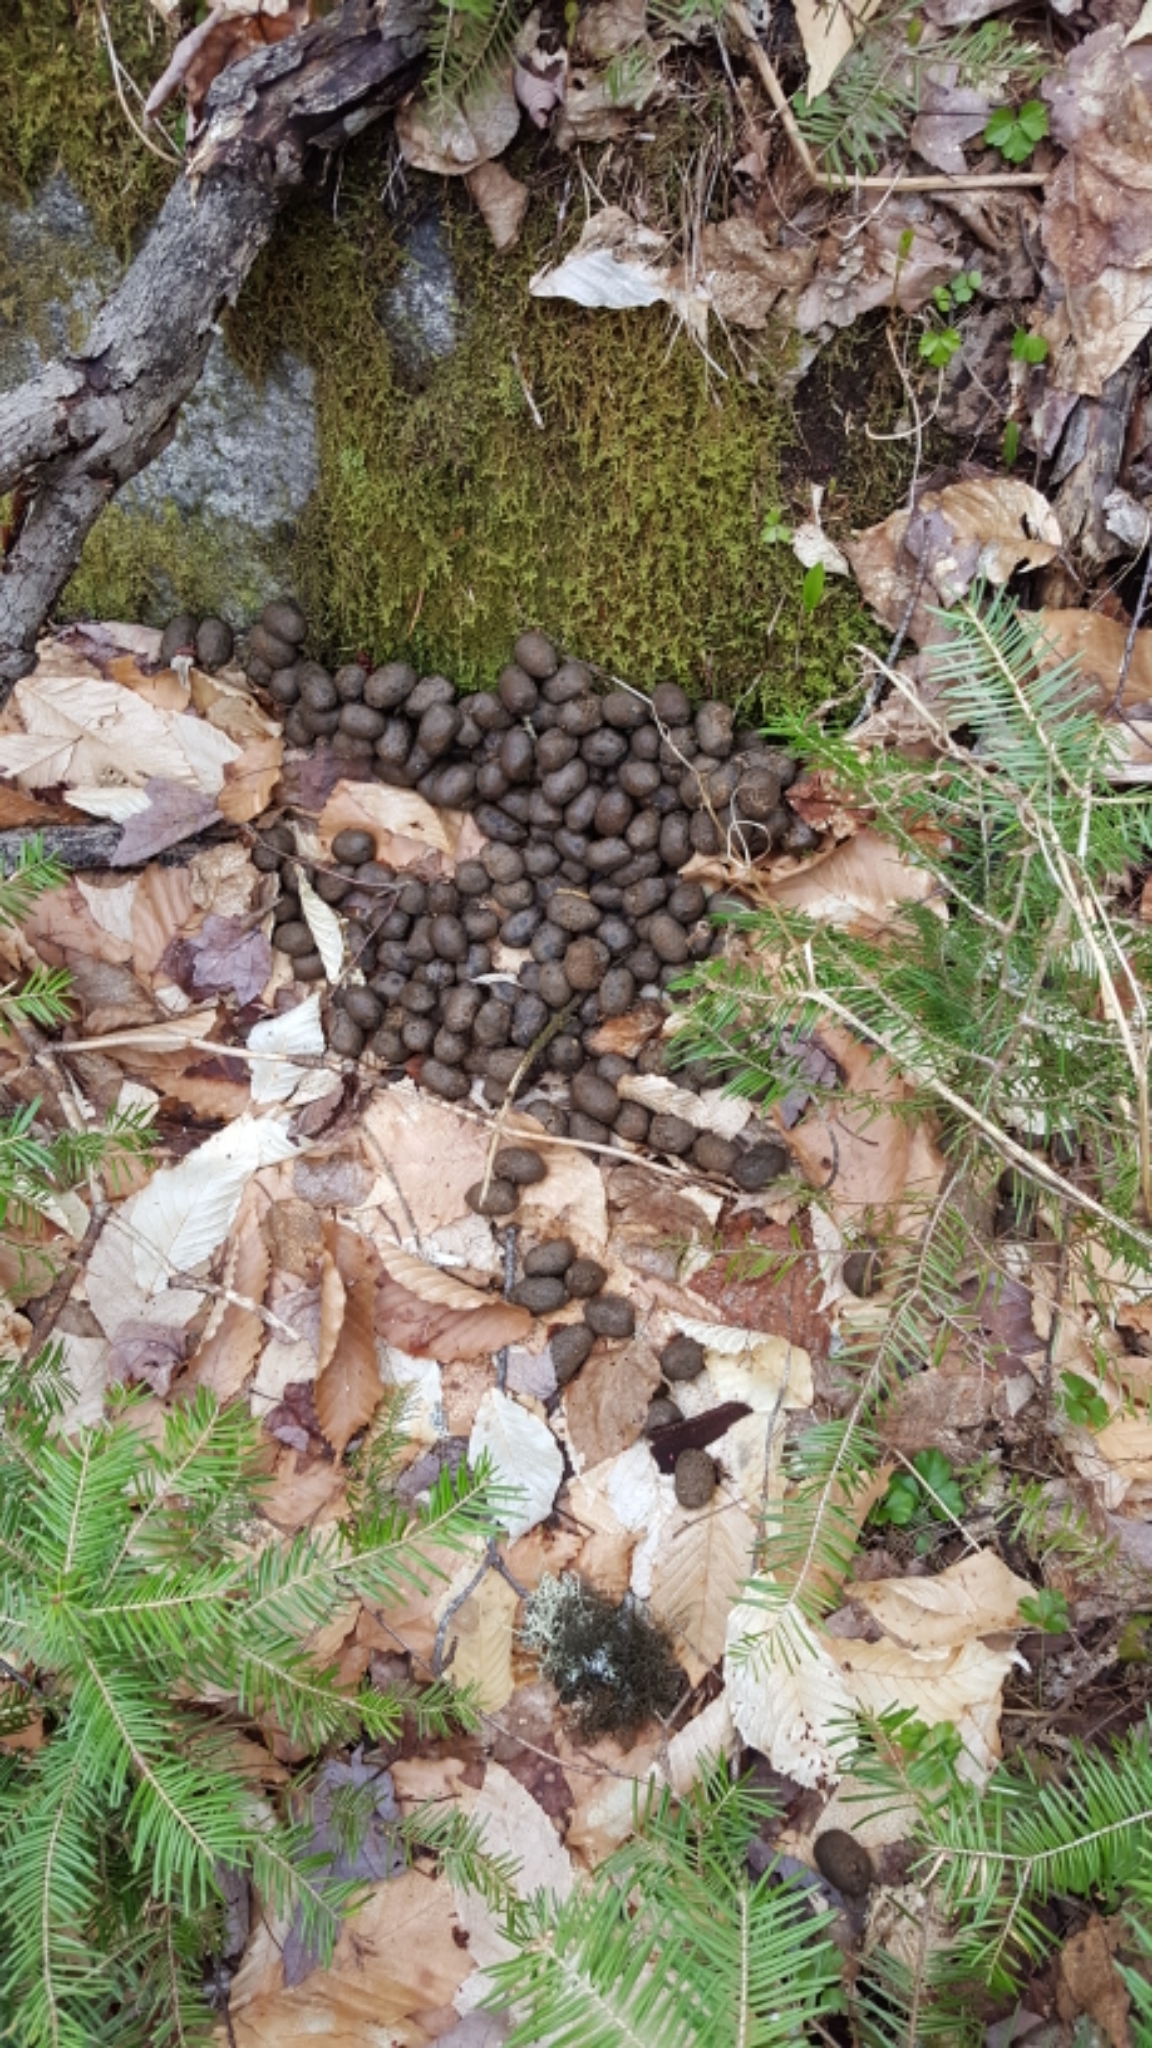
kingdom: Animalia
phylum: Chordata
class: Mammalia
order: Artiodactyla
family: Cervidae
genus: Alces
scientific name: Alces alces
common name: Moose
